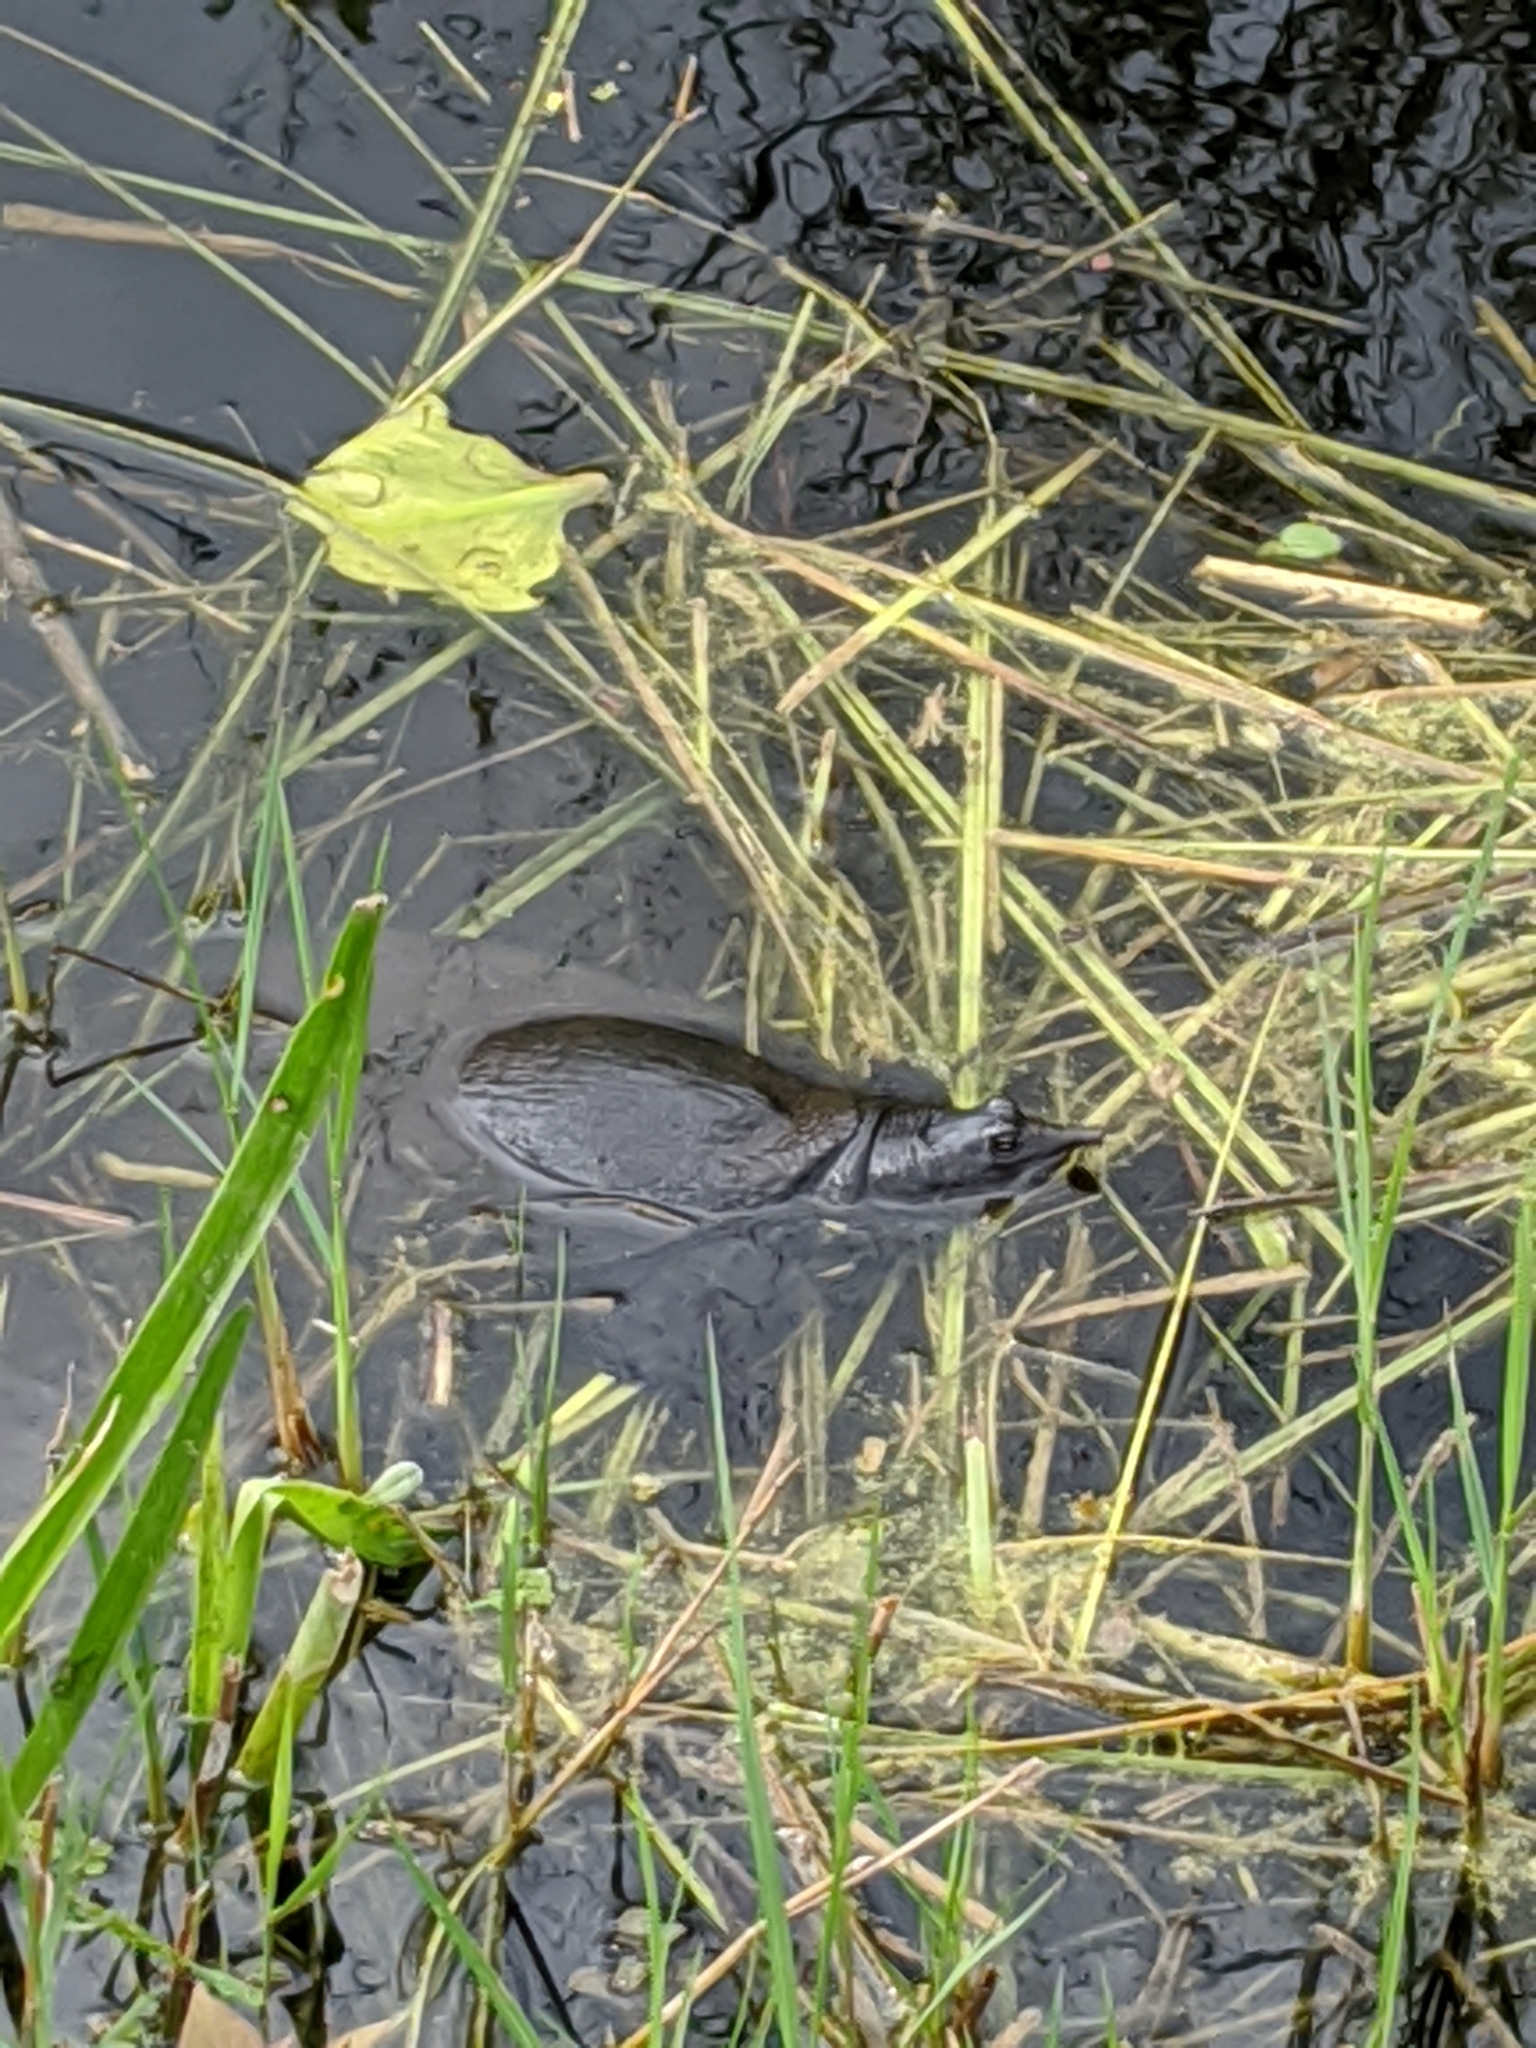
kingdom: Animalia
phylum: Chordata
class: Testudines
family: Trionychidae
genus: Apalone
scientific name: Apalone ferox
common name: Florida softshell turtle
